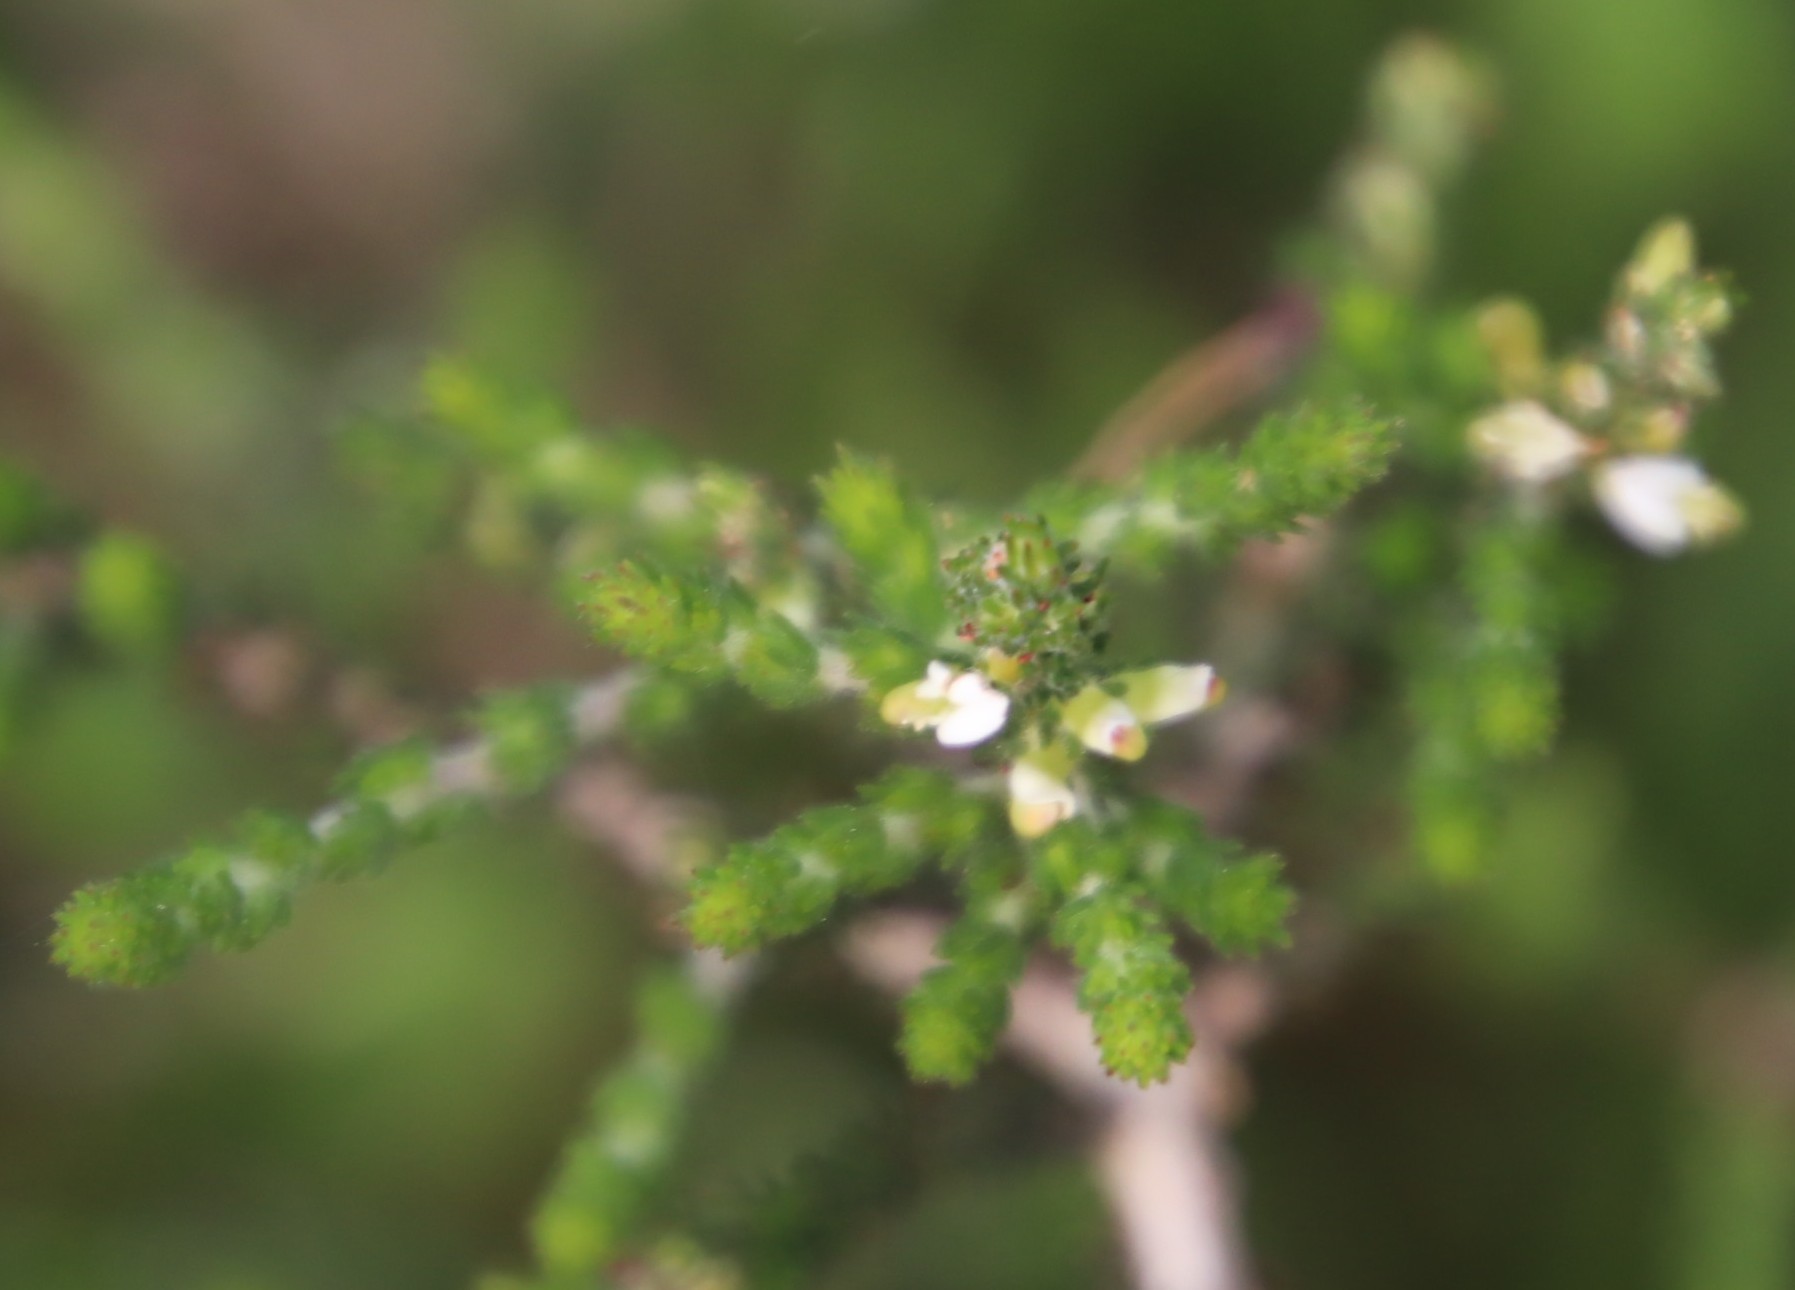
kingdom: Plantae
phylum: Tracheophyta
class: Magnoliopsida
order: Fabales
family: Fabaceae
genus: Aspalathus
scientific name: Aspalathus hispida
